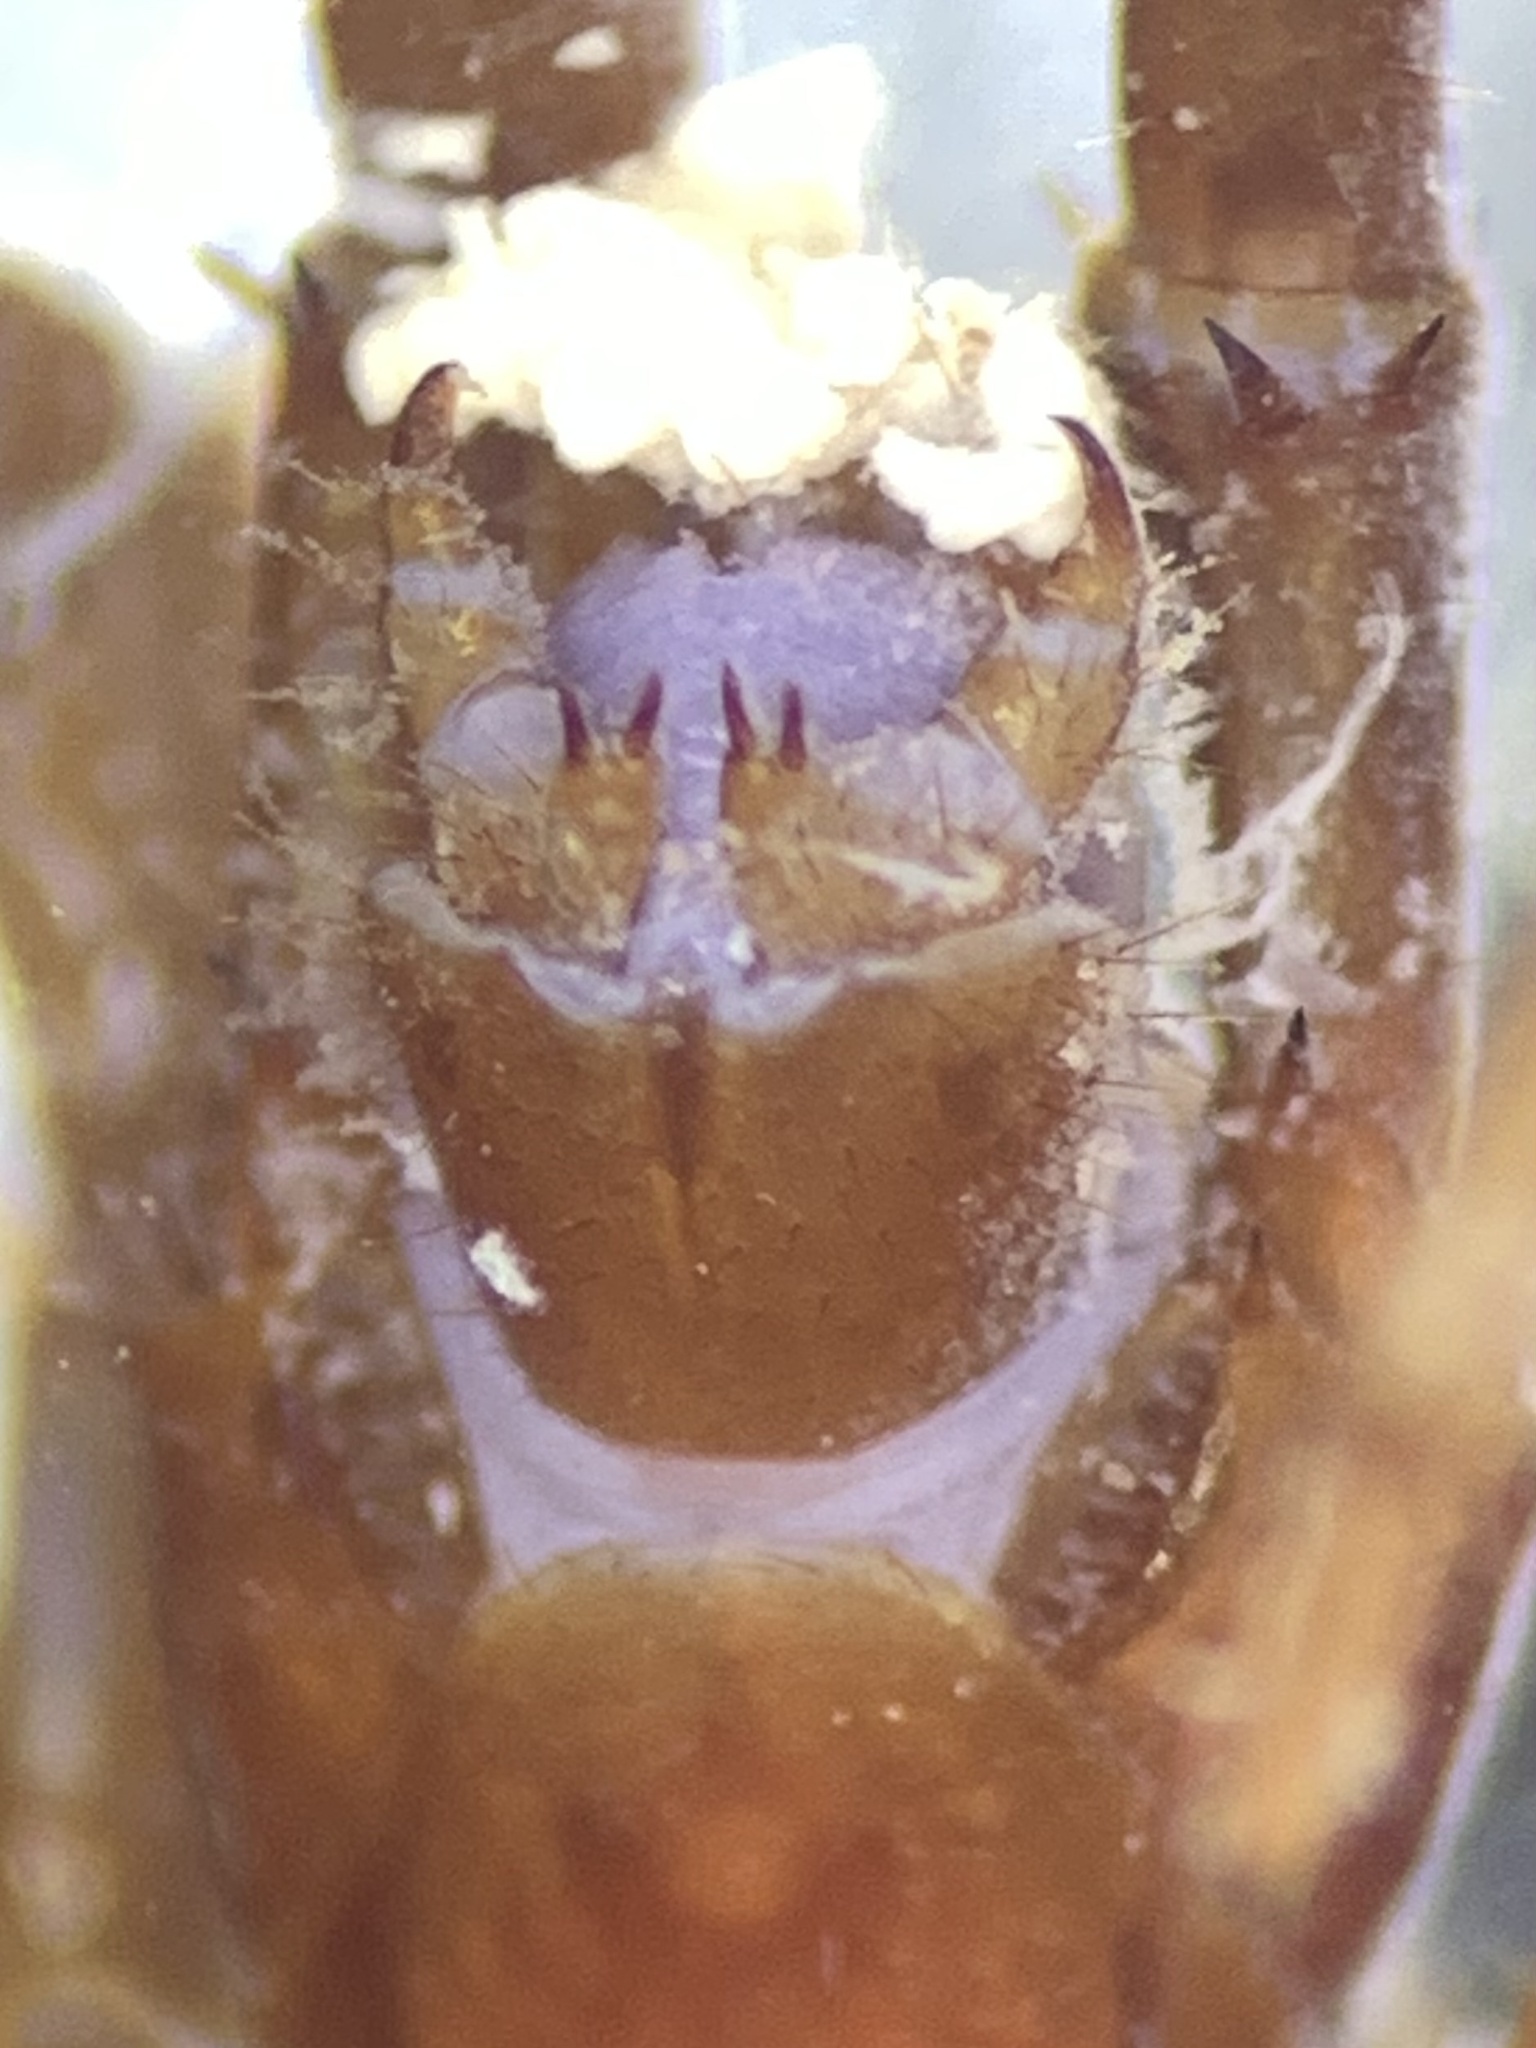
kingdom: Animalia
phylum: Arthropoda
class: Chilopoda
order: Lithobiomorpha
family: Lithobiidae
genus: Lithobius
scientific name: Lithobius pilicornis
